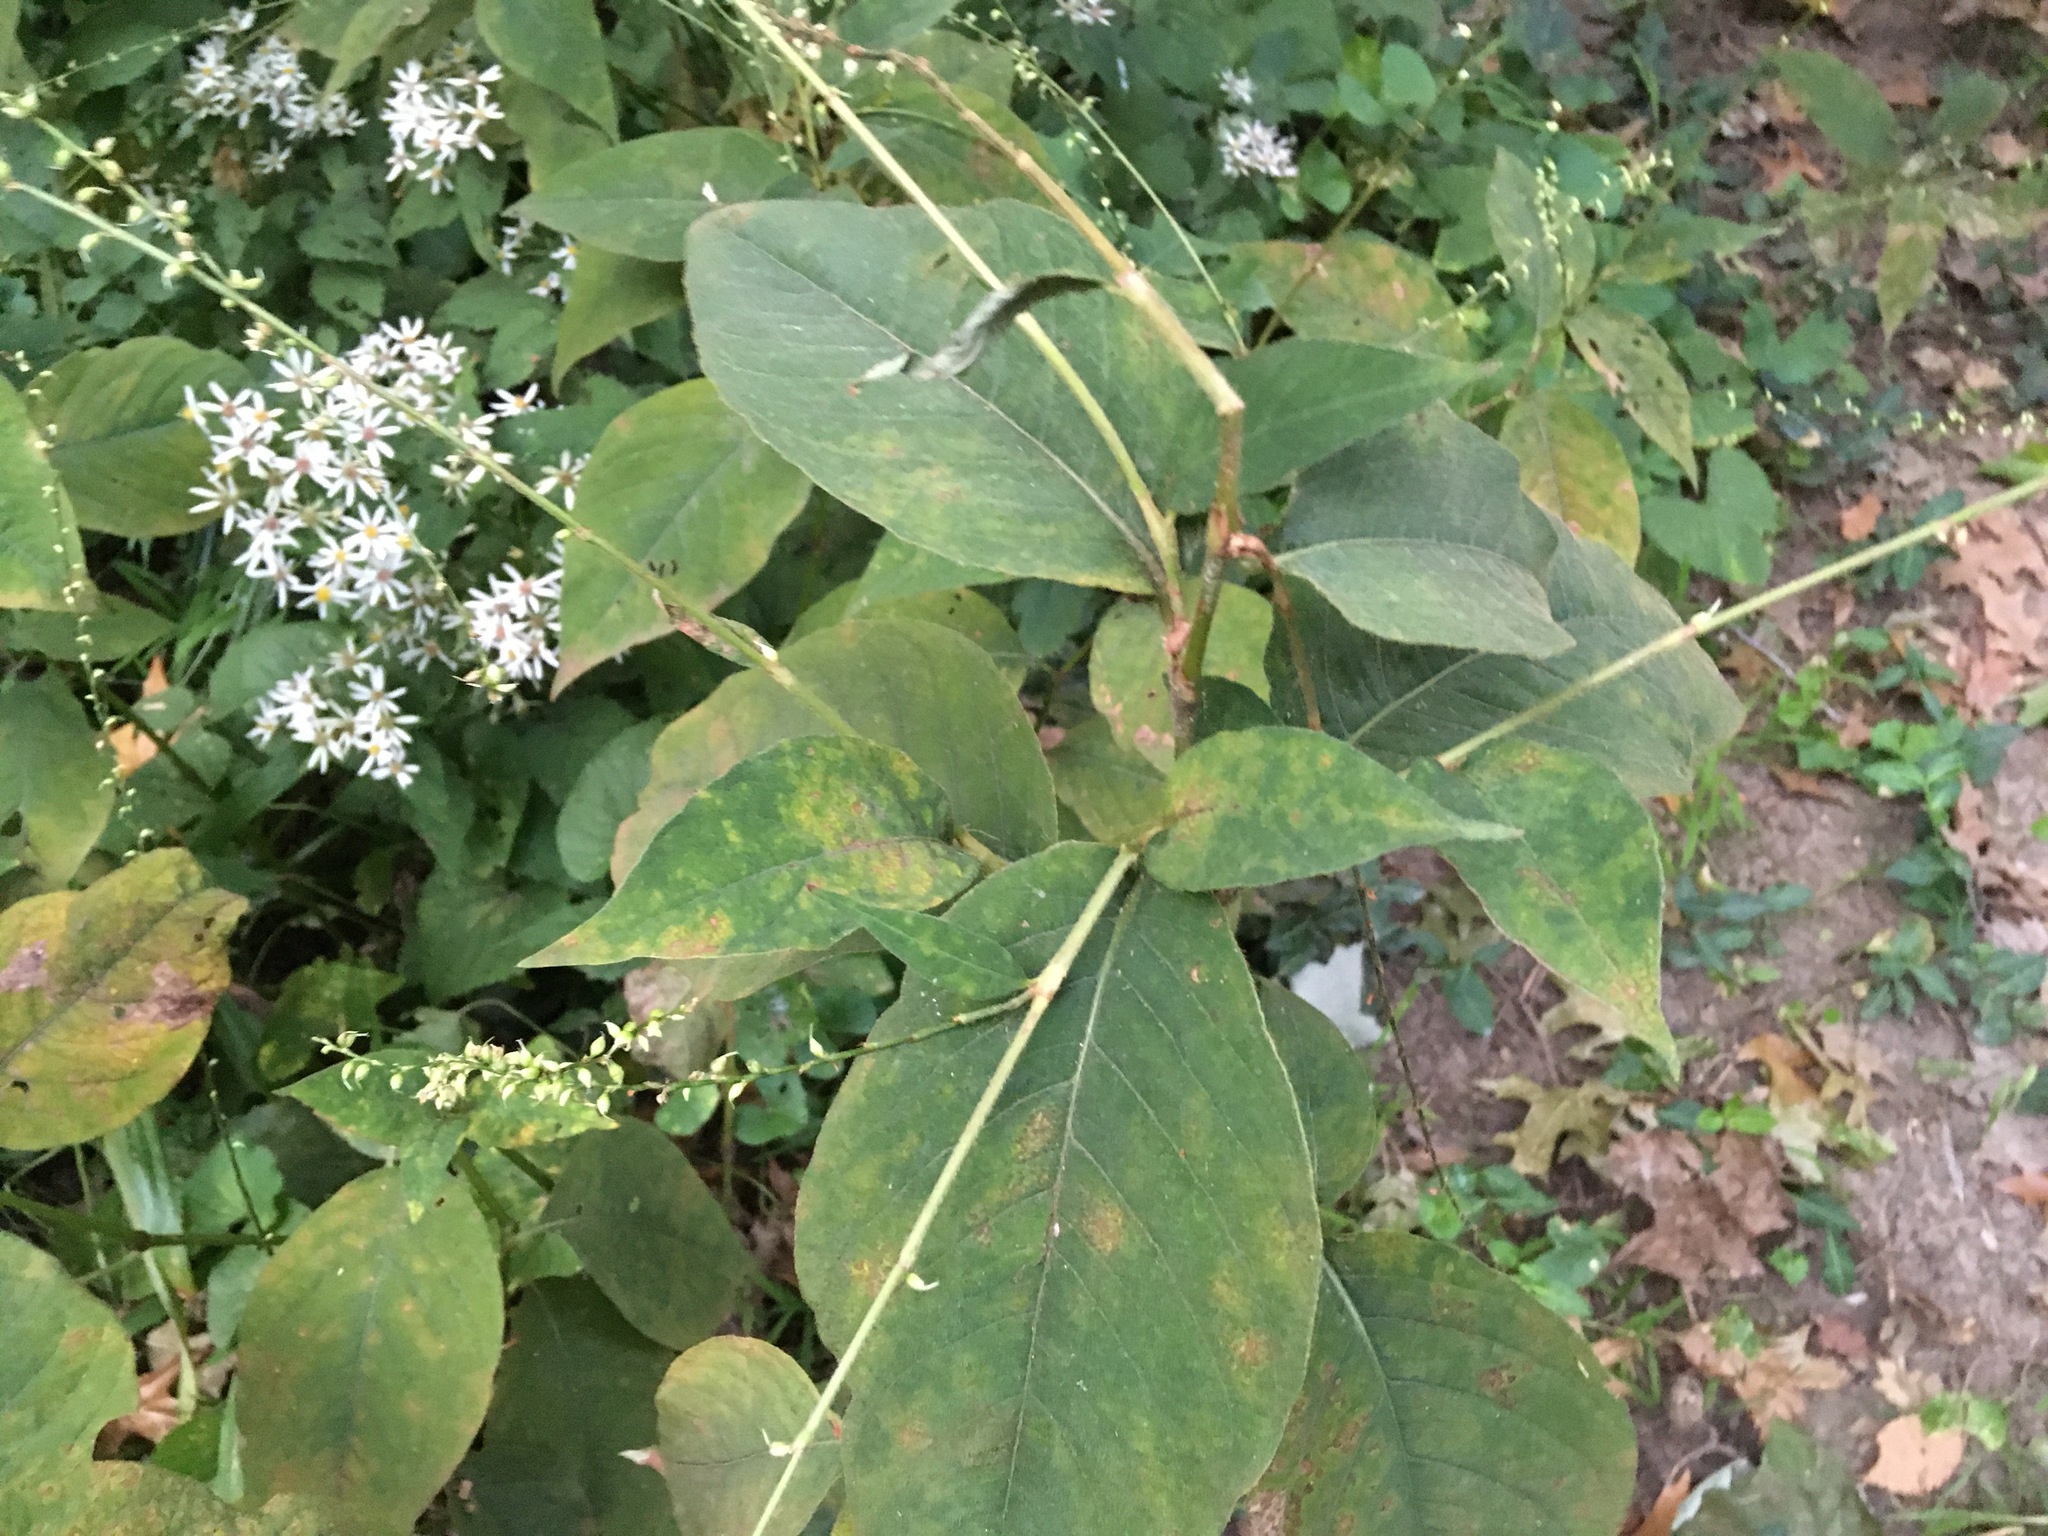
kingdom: Plantae
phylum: Tracheophyta
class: Magnoliopsida
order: Caryophyllales
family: Polygonaceae
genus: Persicaria
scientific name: Persicaria virginiana
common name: Jumpseed
